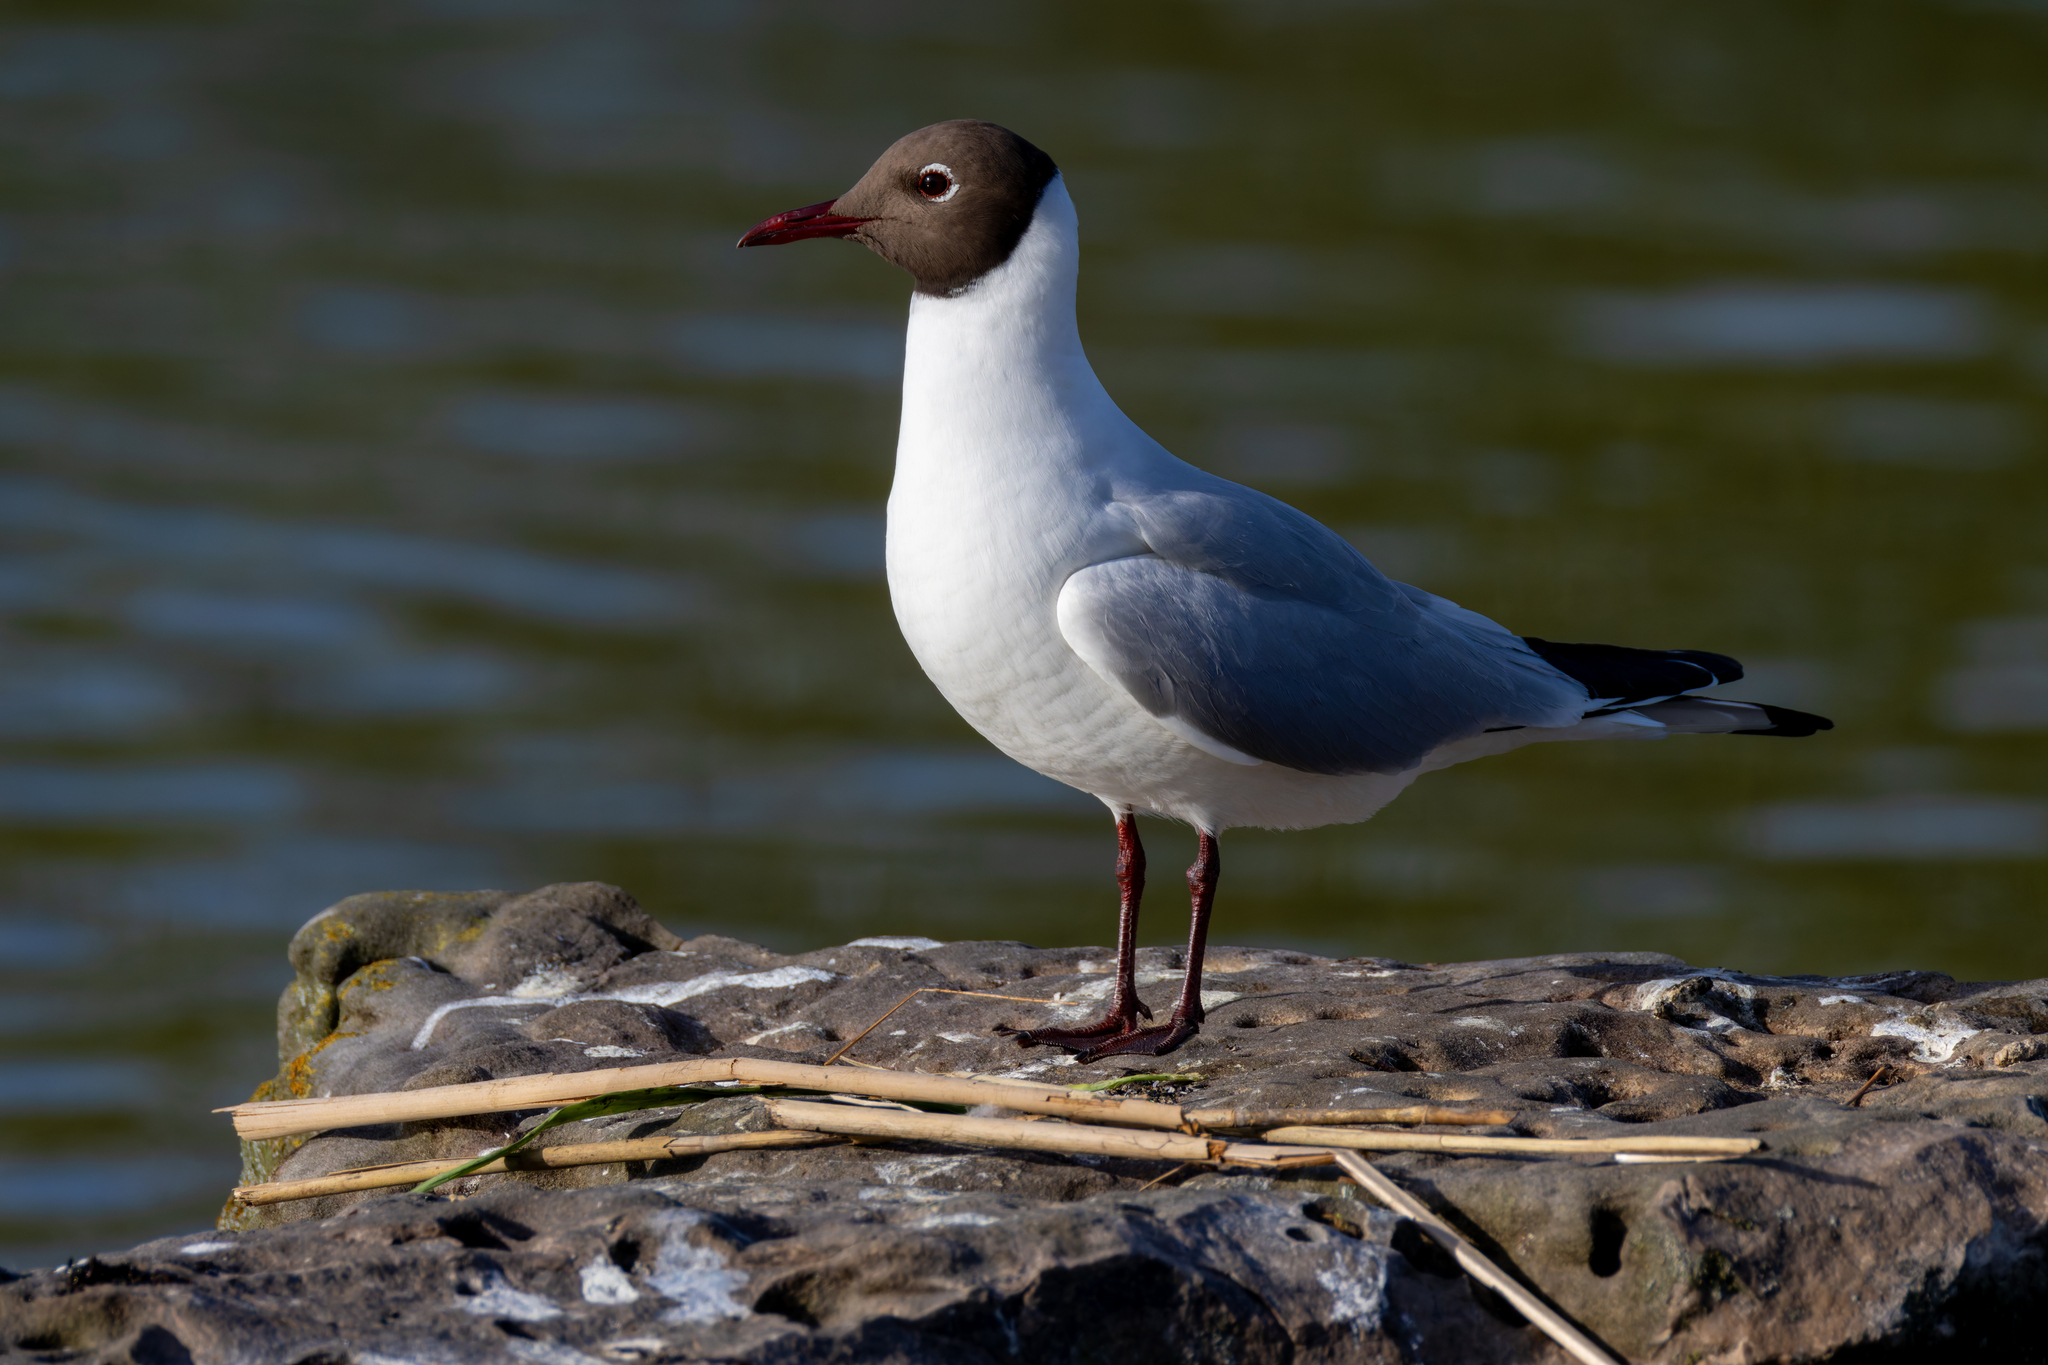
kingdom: Animalia
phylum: Chordata
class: Aves
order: Charadriiformes
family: Laridae
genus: Chroicocephalus
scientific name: Chroicocephalus ridibundus
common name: Black-headed gull
